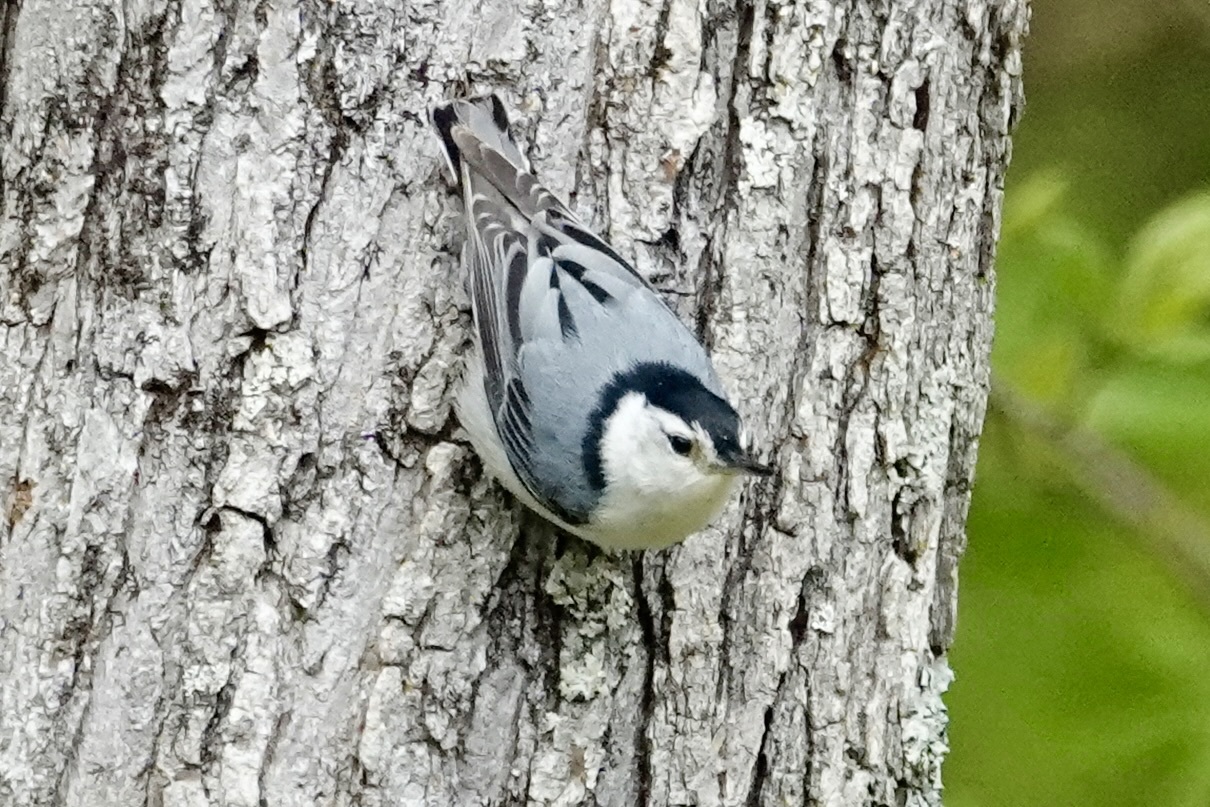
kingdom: Animalia
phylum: Chordata
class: Aves
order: Passeriformes
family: Sittidae
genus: Sitta
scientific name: Sitta carolinensis
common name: White-breasted nuthatch
